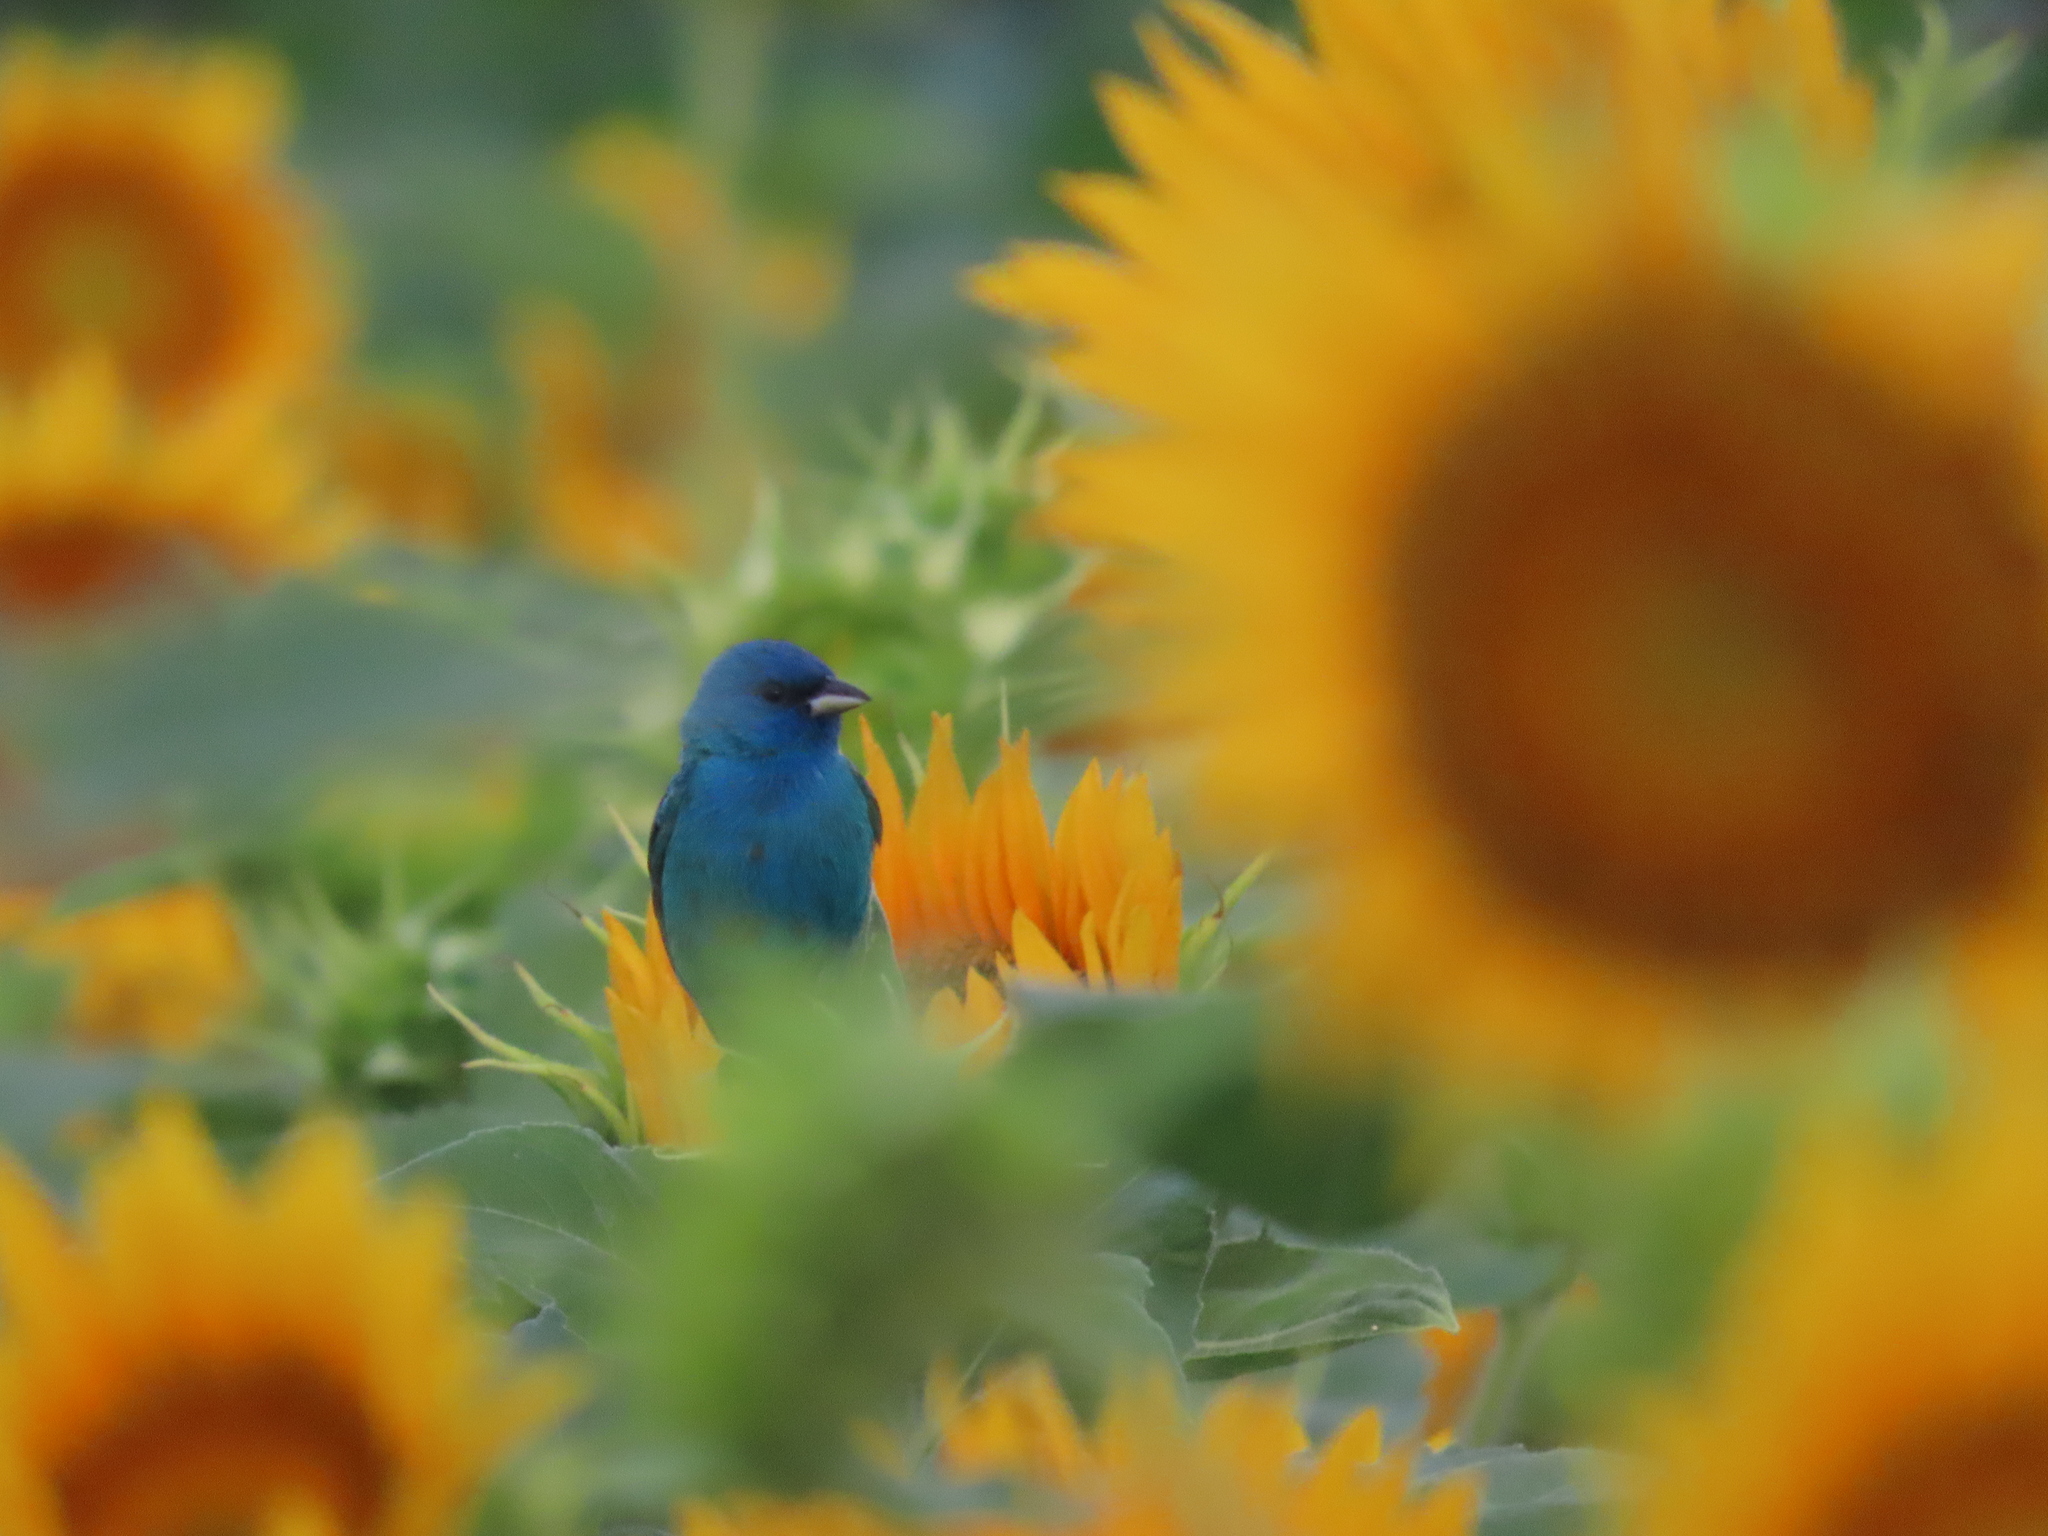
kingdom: Animalia
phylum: Chordata
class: Aves
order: Passeriformes
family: Cardinalidae
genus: Passerina
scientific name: Passerina cyanea
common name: Indigo bunting
